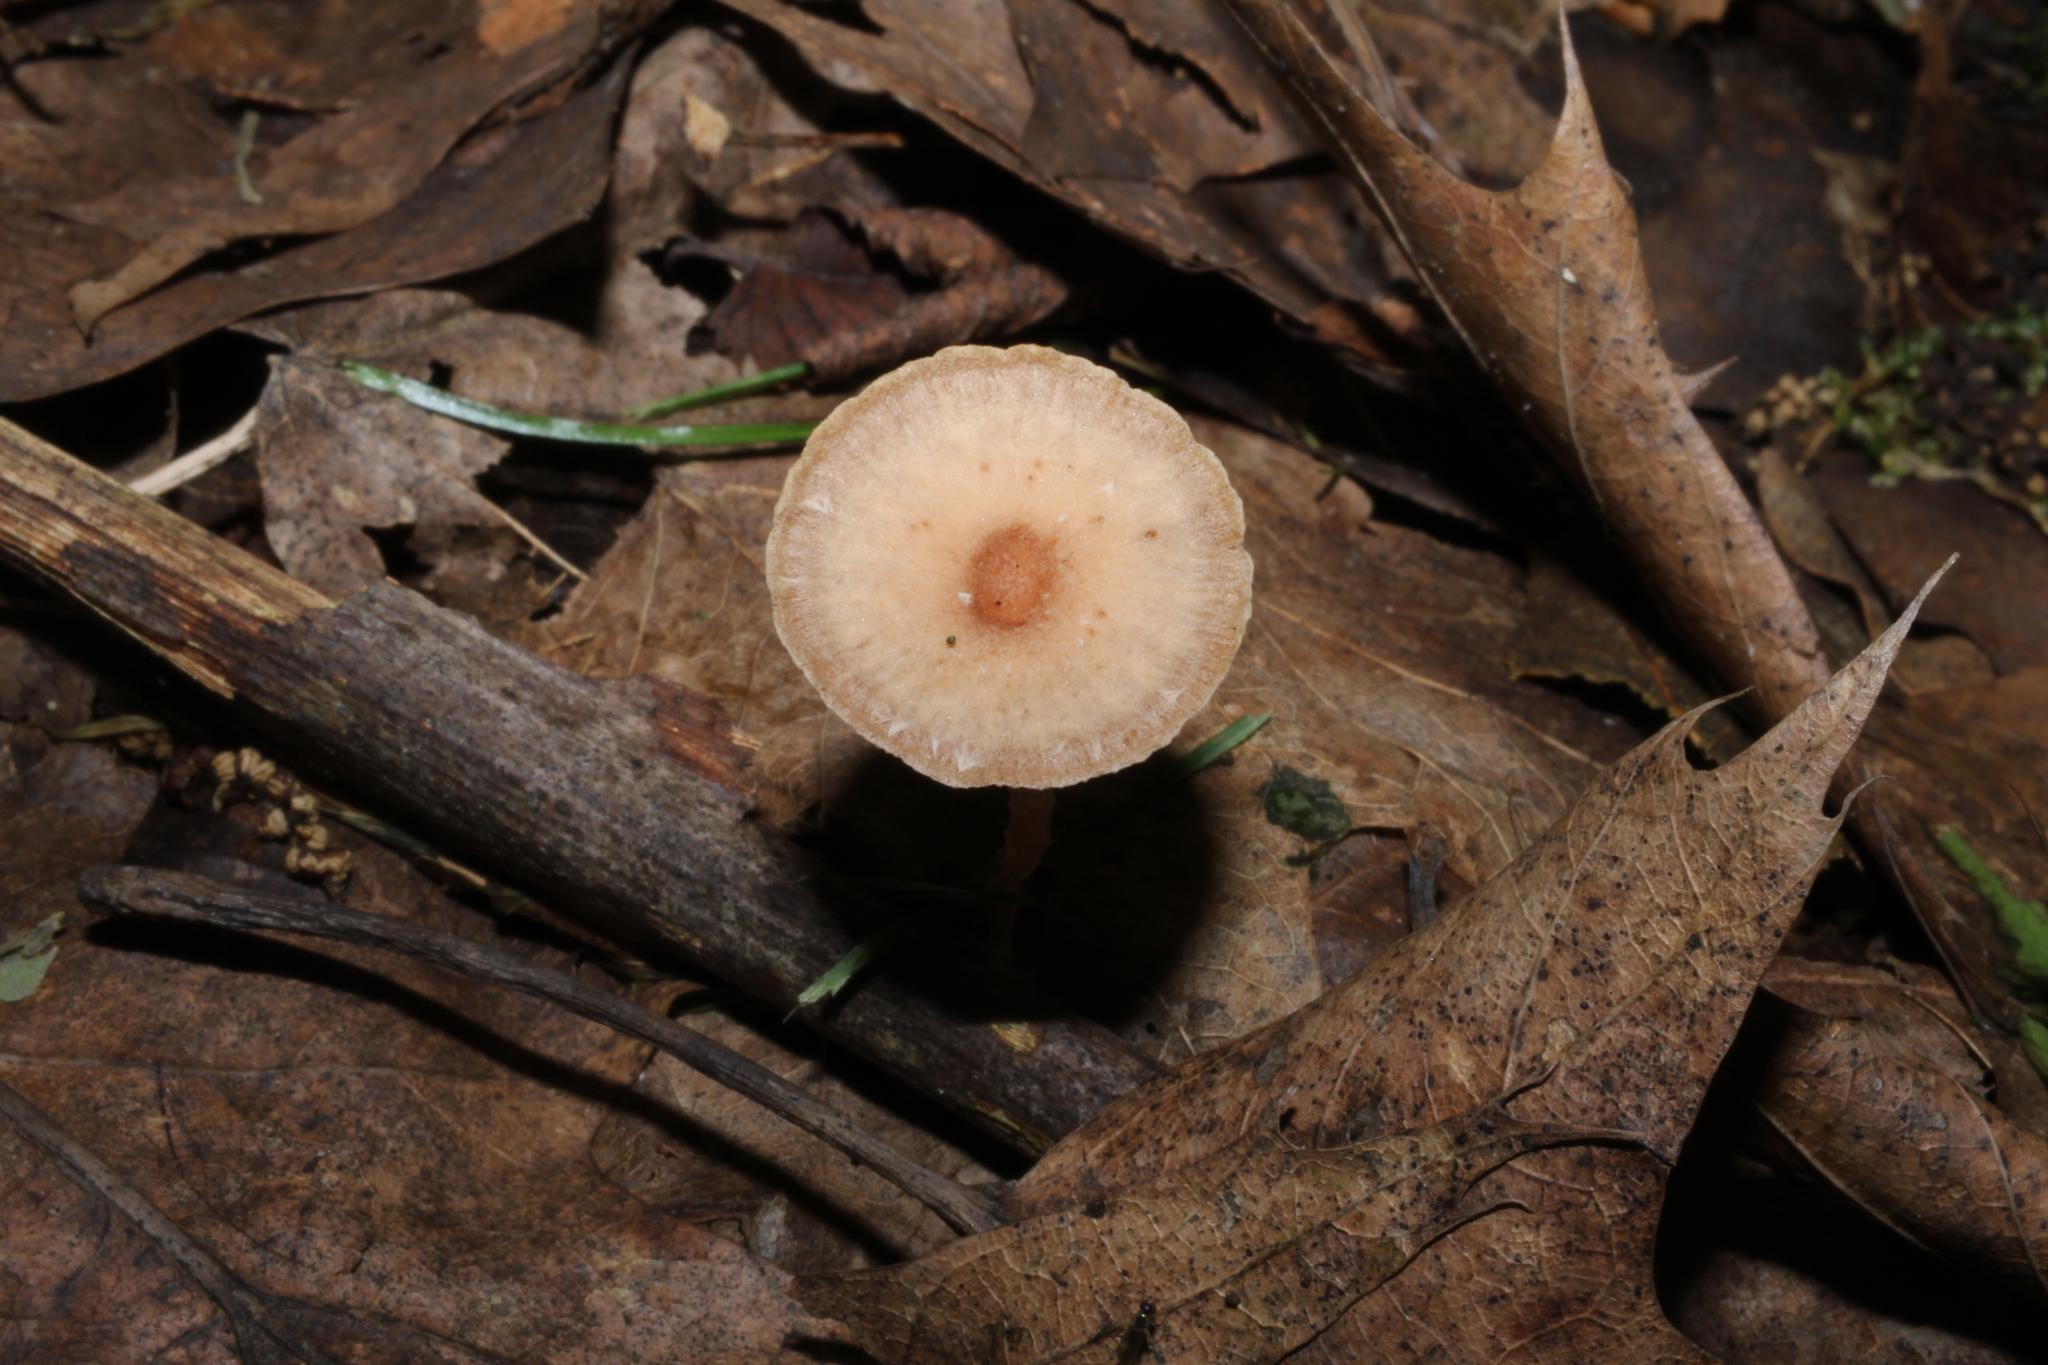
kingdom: Fungi
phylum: Basidiomycota
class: Agaricomycetes
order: Agaricales
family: Tubariaceae
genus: Tubaria
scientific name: Tubaria furfuracea
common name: Scurfy twiglet
